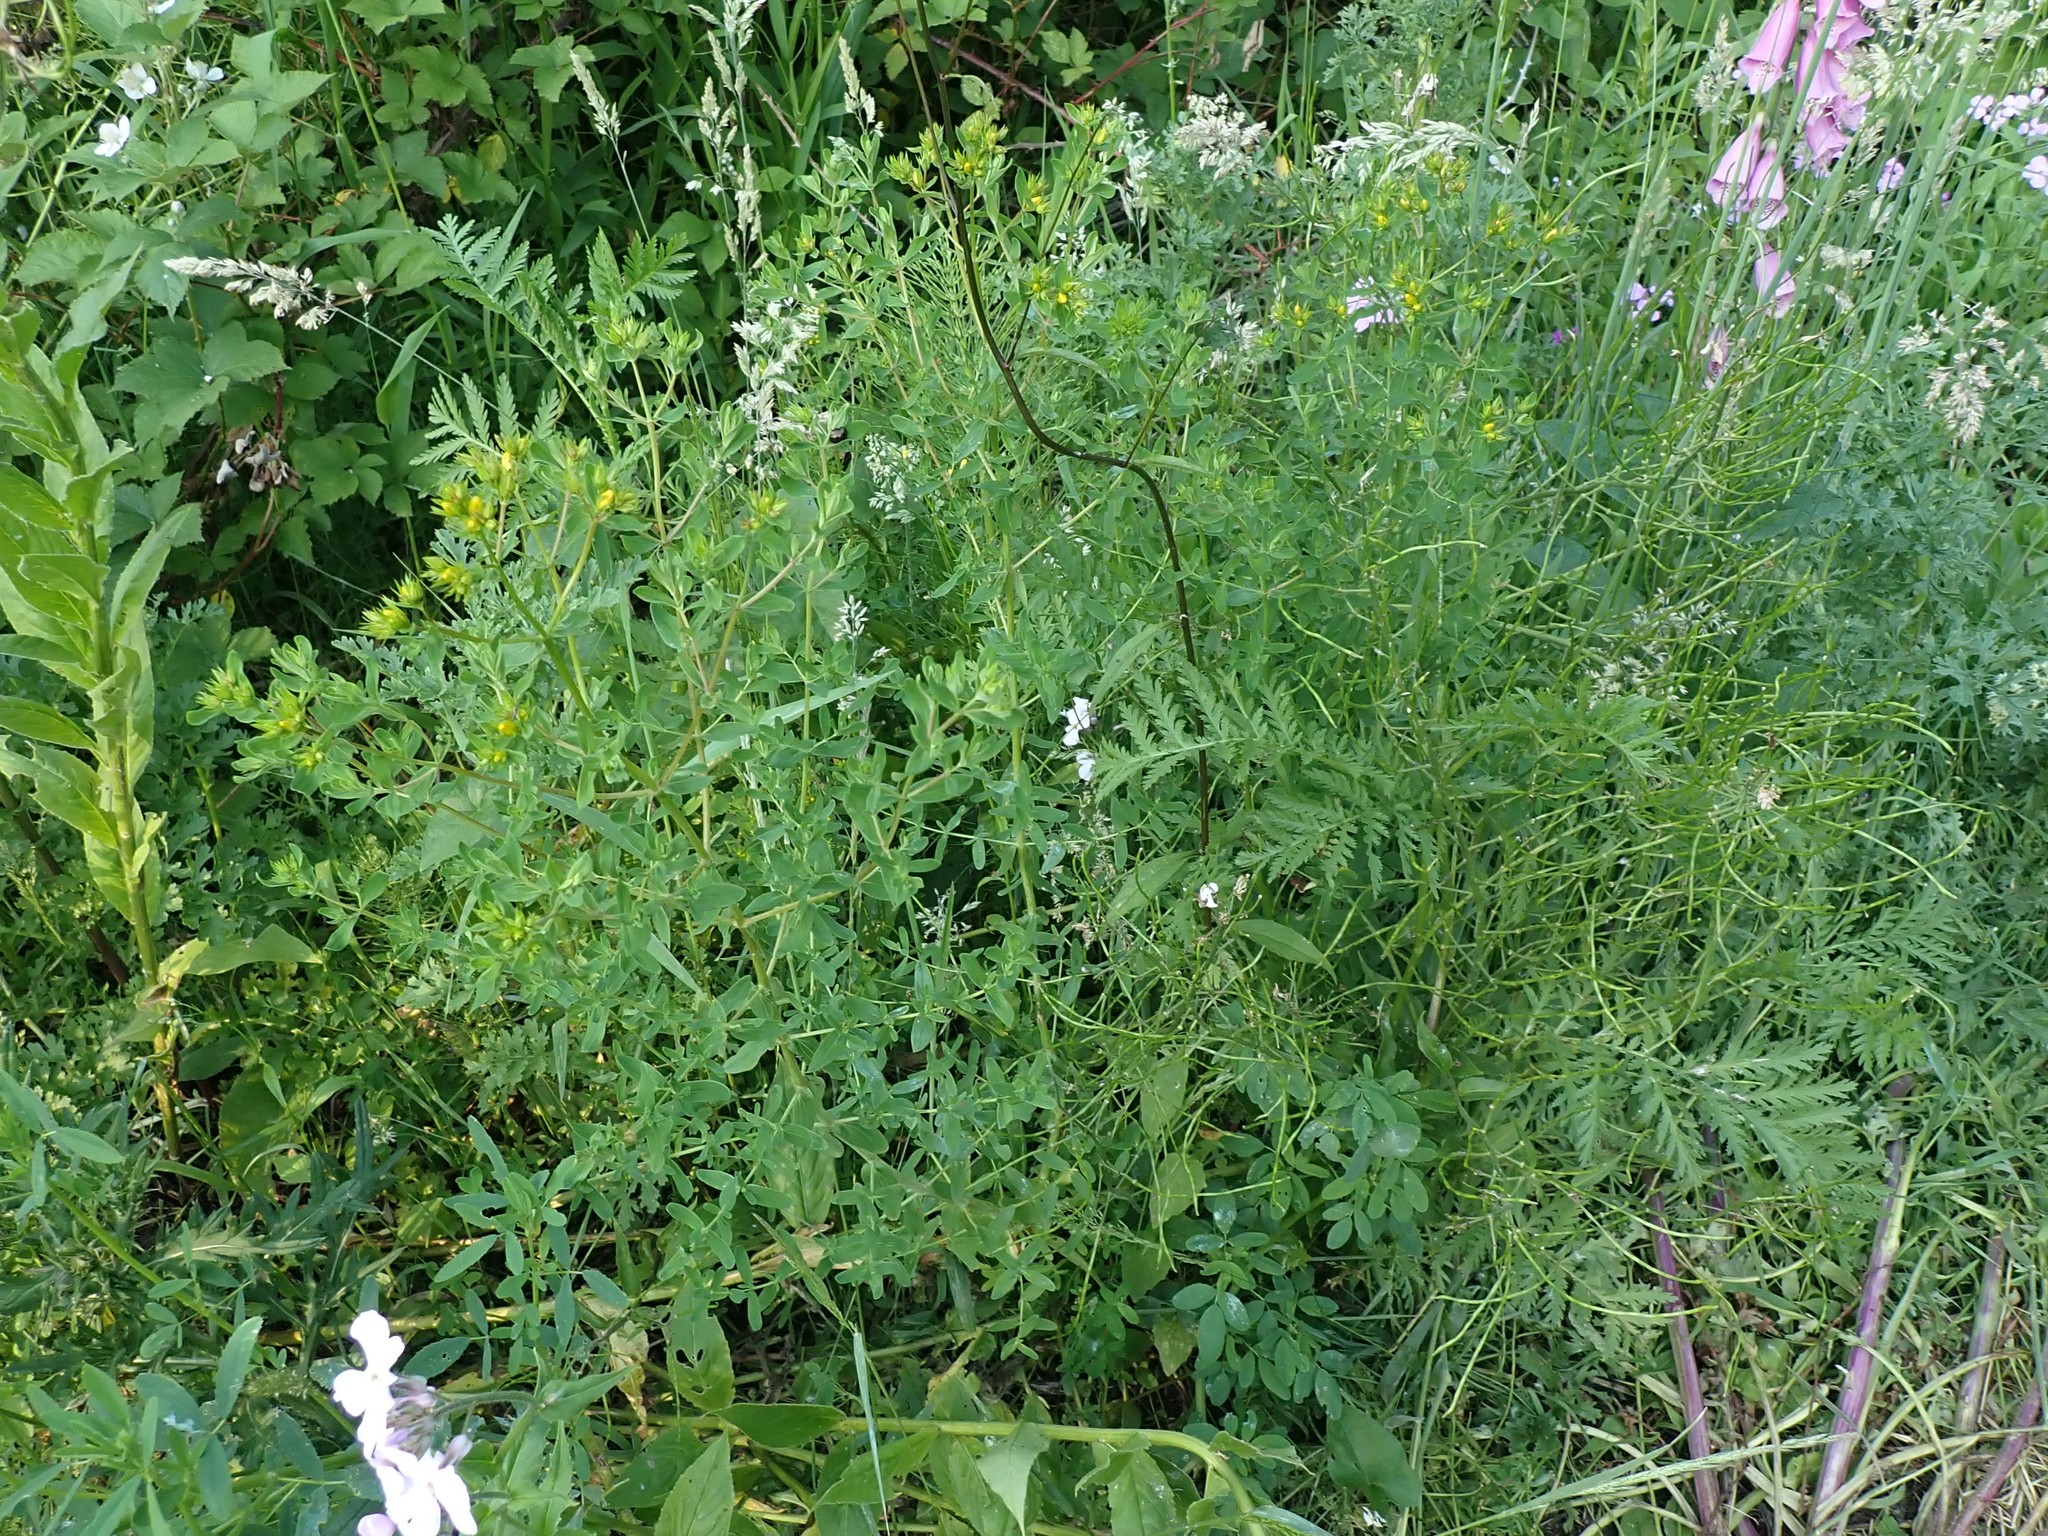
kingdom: Plantae
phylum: Tracheophyta
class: Magnoliopsida
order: Malpighiales
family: Hypericaceae
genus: Hypericum
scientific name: Hypericum perforatum
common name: Common st. johnswort
